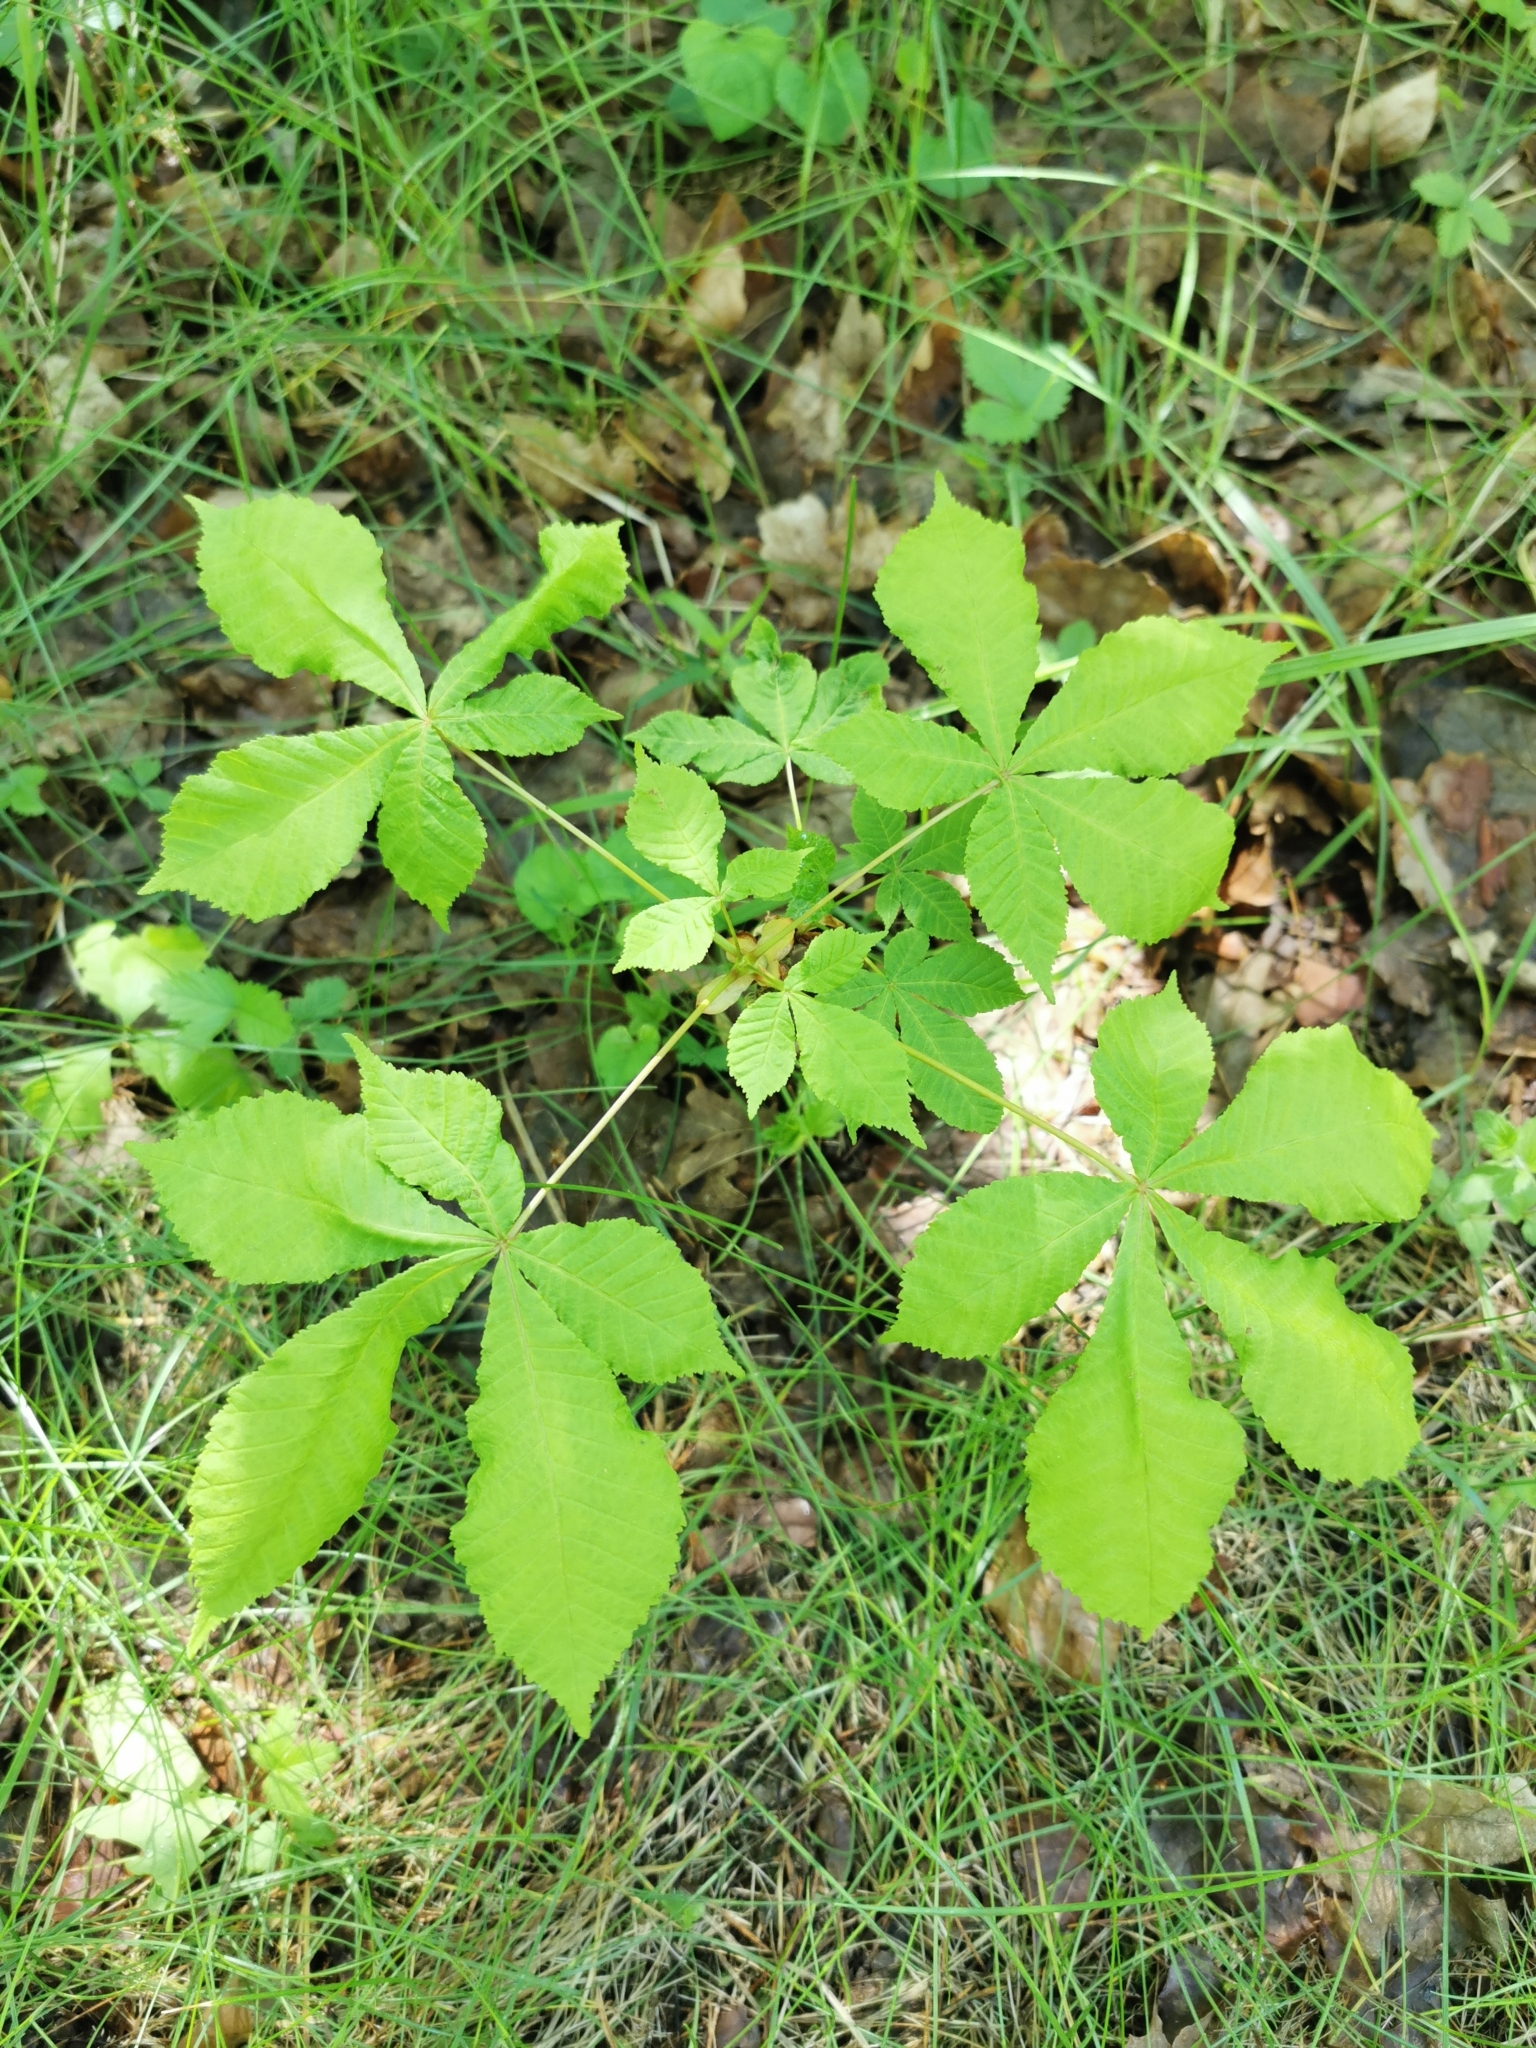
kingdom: Plantae
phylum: Tracheophyta
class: Magnoliopsida
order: Sapindales
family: Sapindaceae
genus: Aesculus
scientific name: Aesculus hippocastanum
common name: Horse-chestnut
